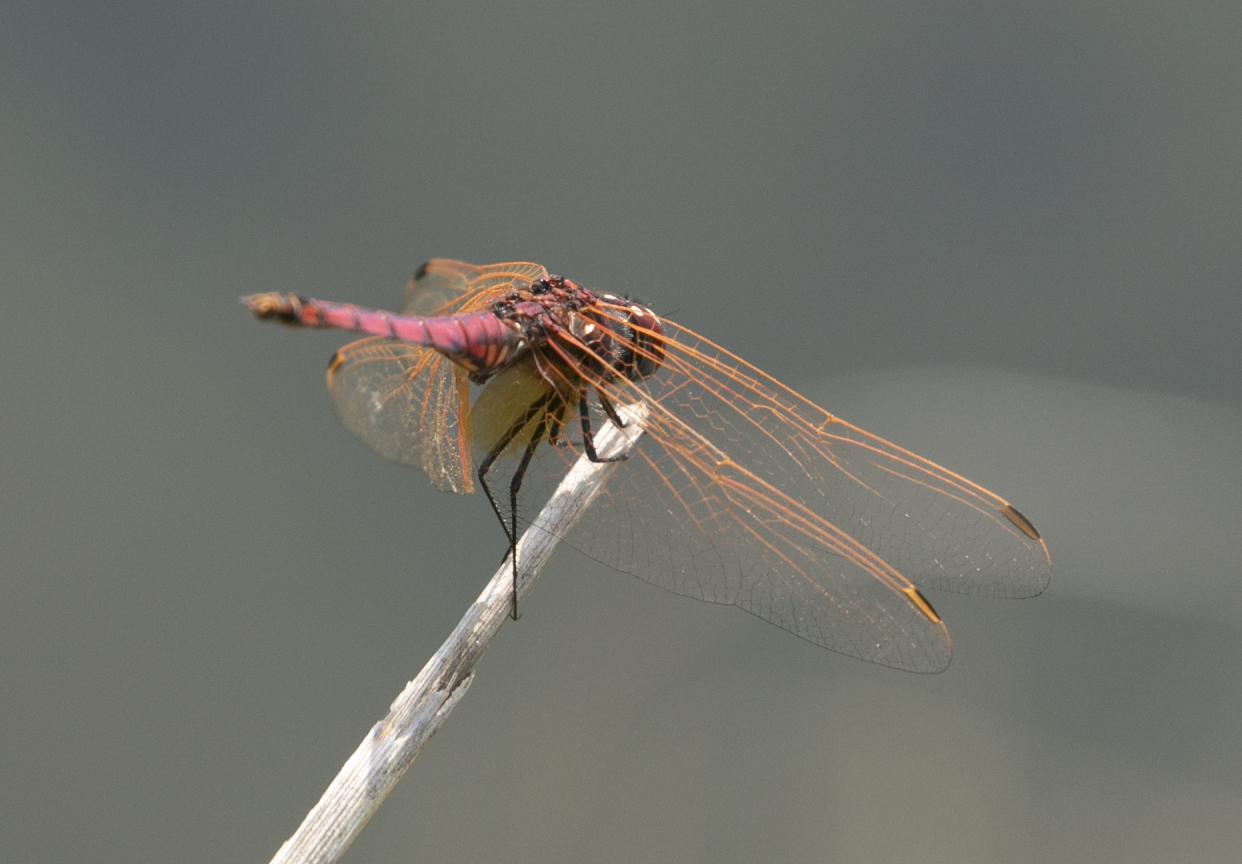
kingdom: Animalia
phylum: Arthropoda
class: Insecta
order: Odonata
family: Libellulidae
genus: Trithemis
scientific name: Trithemis annulata
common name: Violet dropwing
